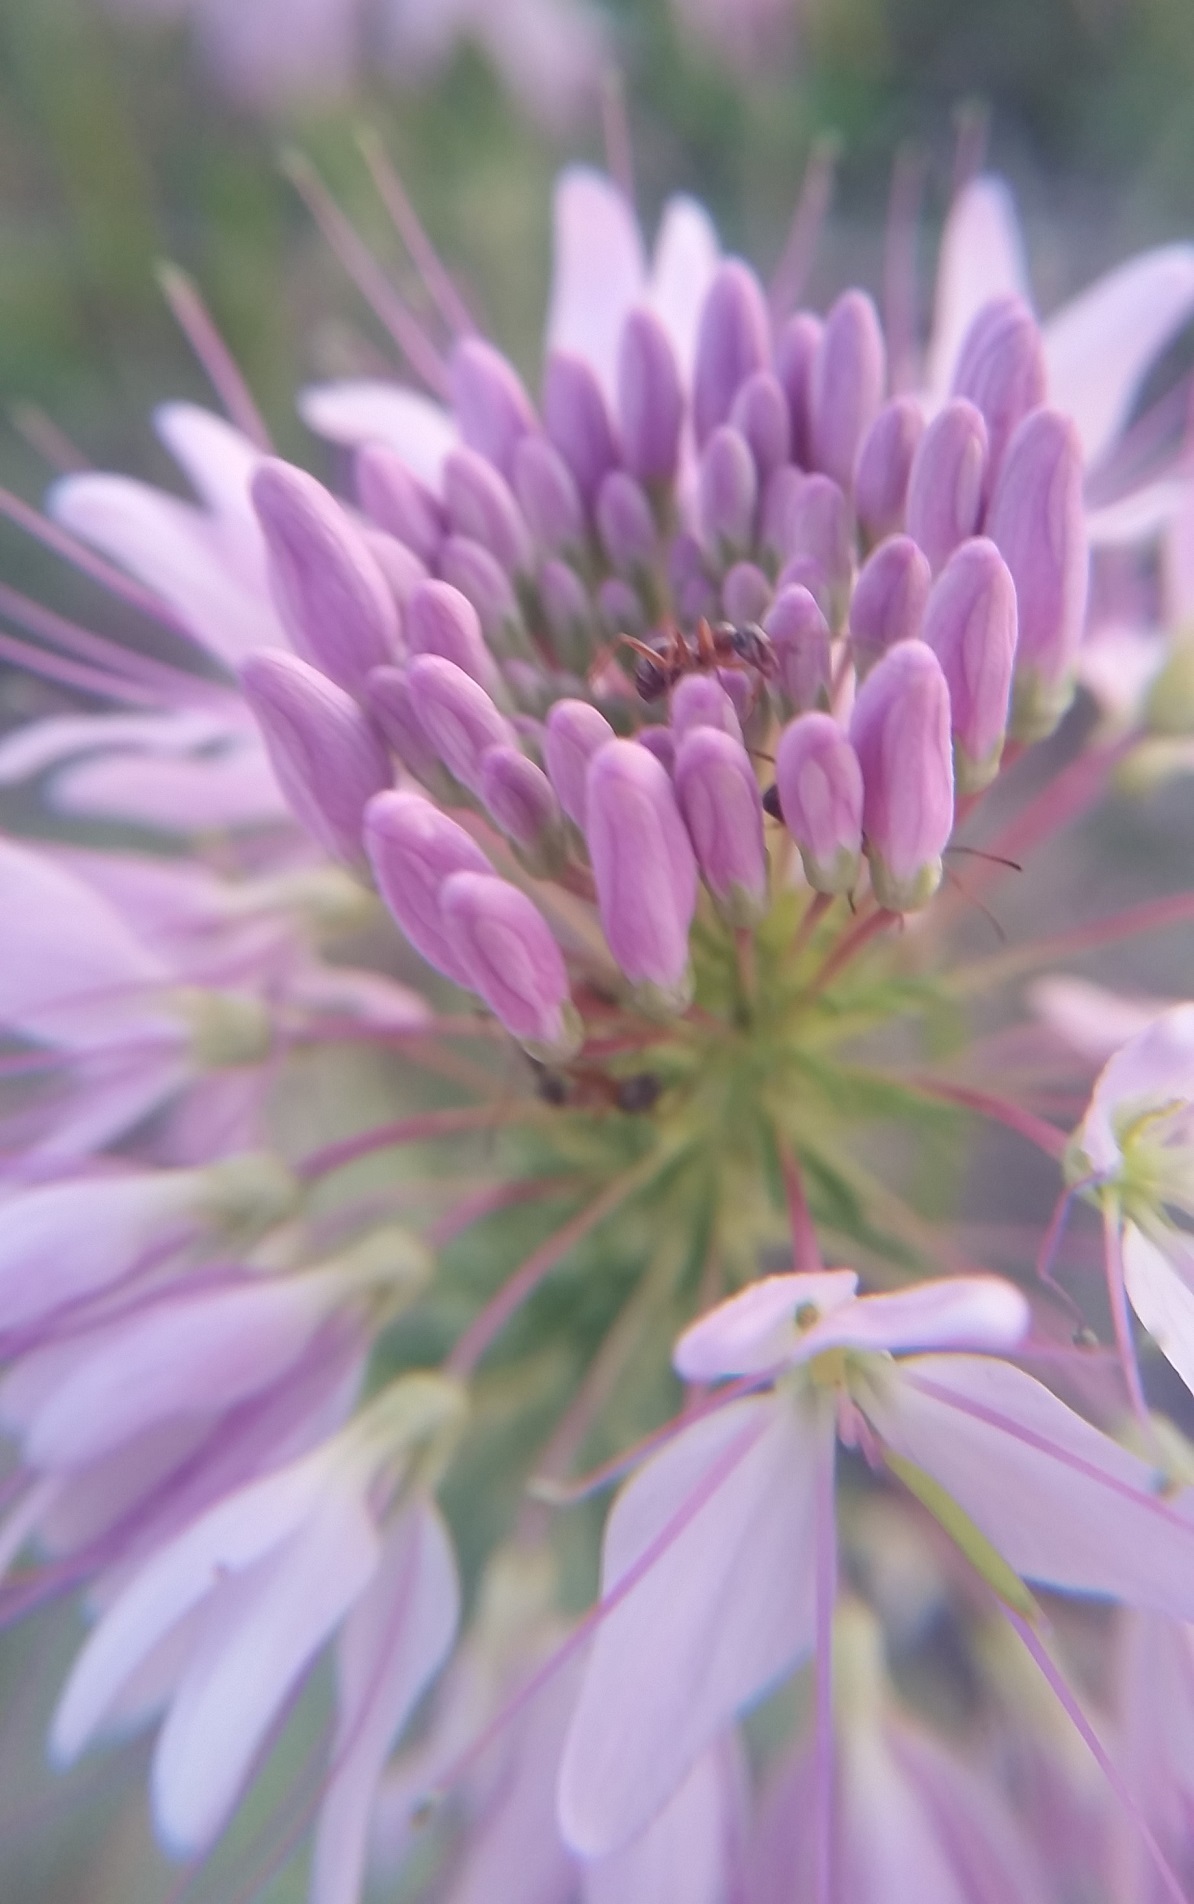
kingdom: Plantae
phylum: Tracheophyta
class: Magnoliopsida
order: Brassicales
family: Cleomaceae
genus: Cleomella
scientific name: Cleomella serrulata
